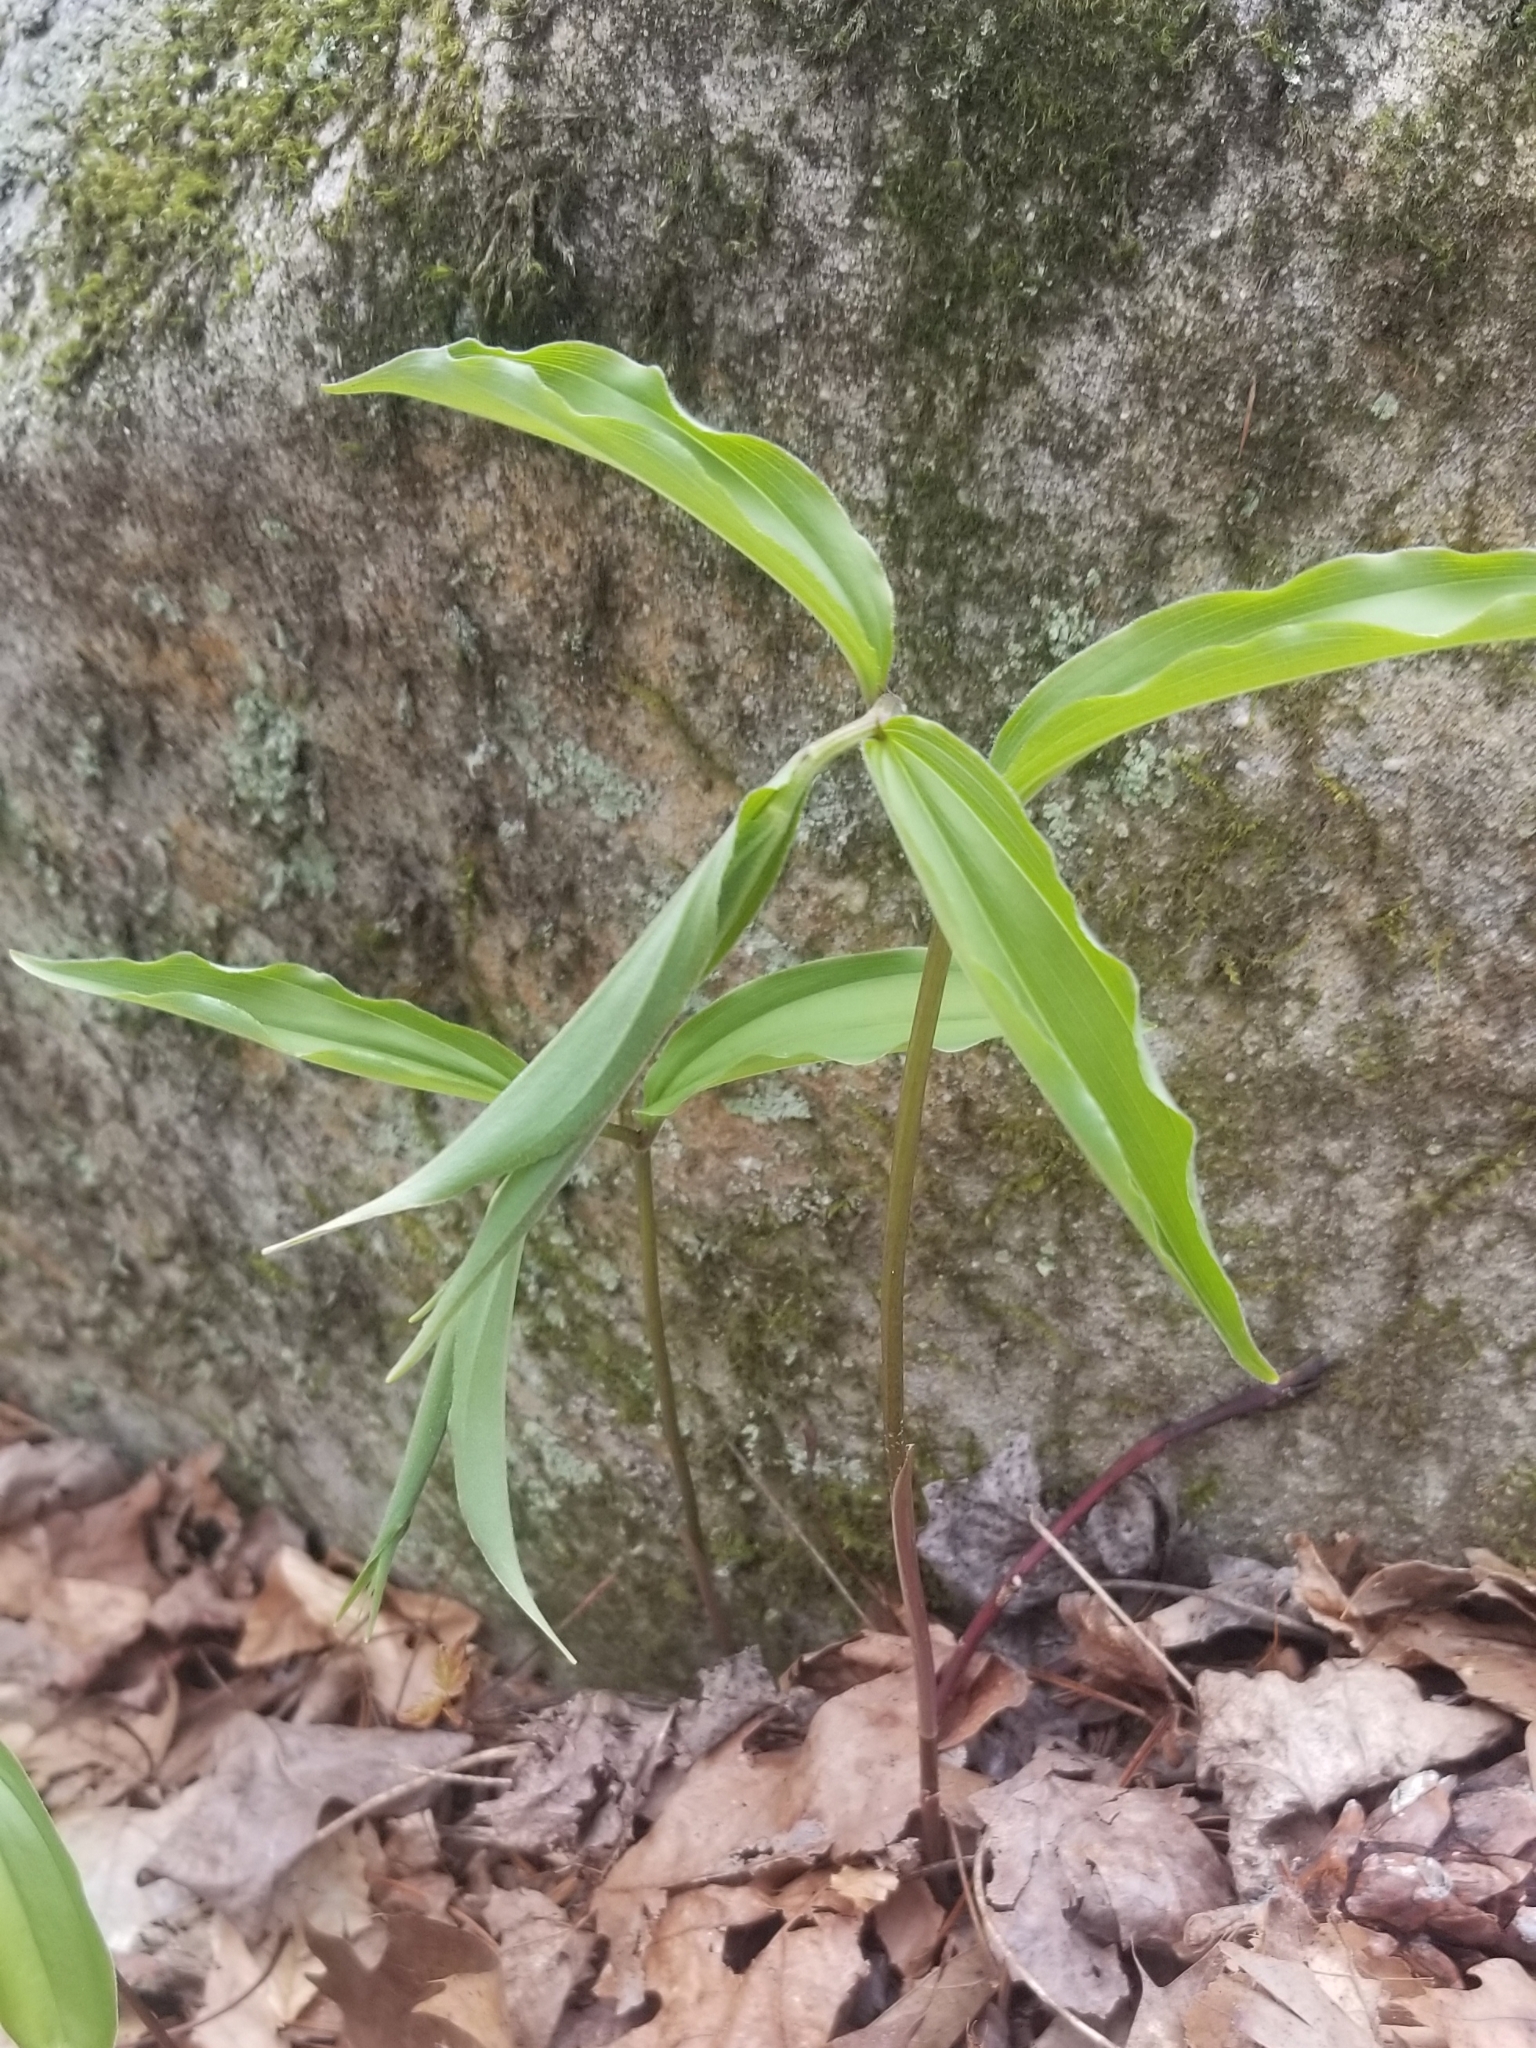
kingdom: Plantae
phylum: Tracheophyta
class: Liliopsida
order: Asparagales
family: Asparagaceae
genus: Maianthemum
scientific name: Maianthemum racemosum
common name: False spikenard
